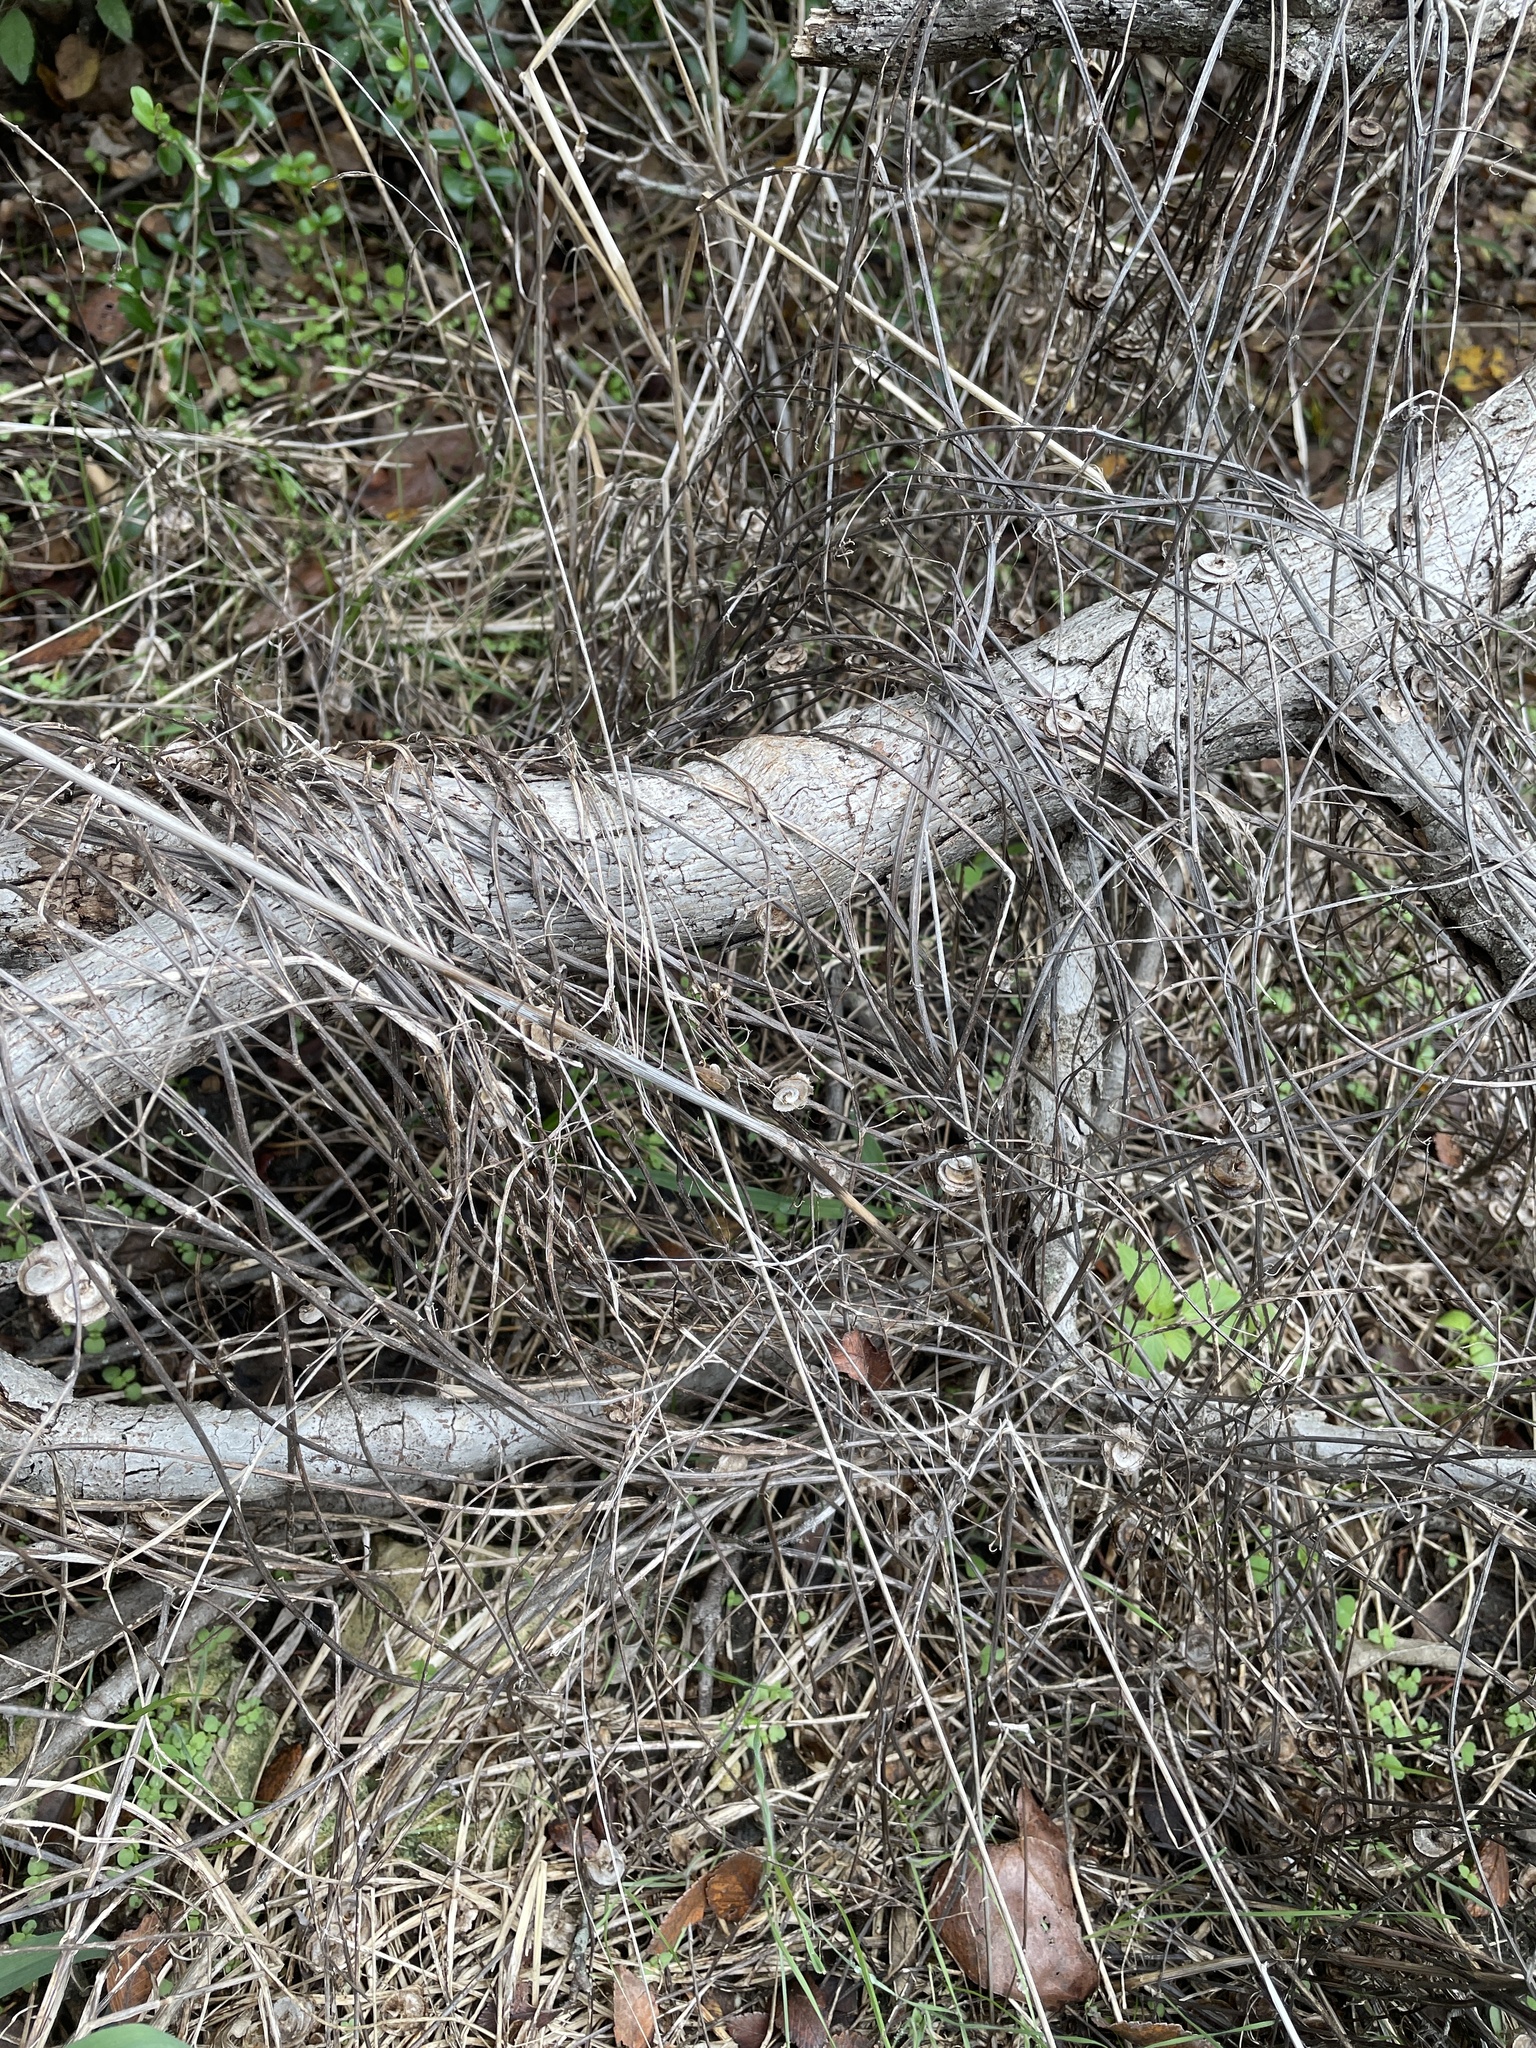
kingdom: Plantae
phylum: Tracheophyta
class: Magnoliopsida
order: Fabales
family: Fabaceae
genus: Medicago
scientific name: Medicago orbicularis
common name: Button medick
